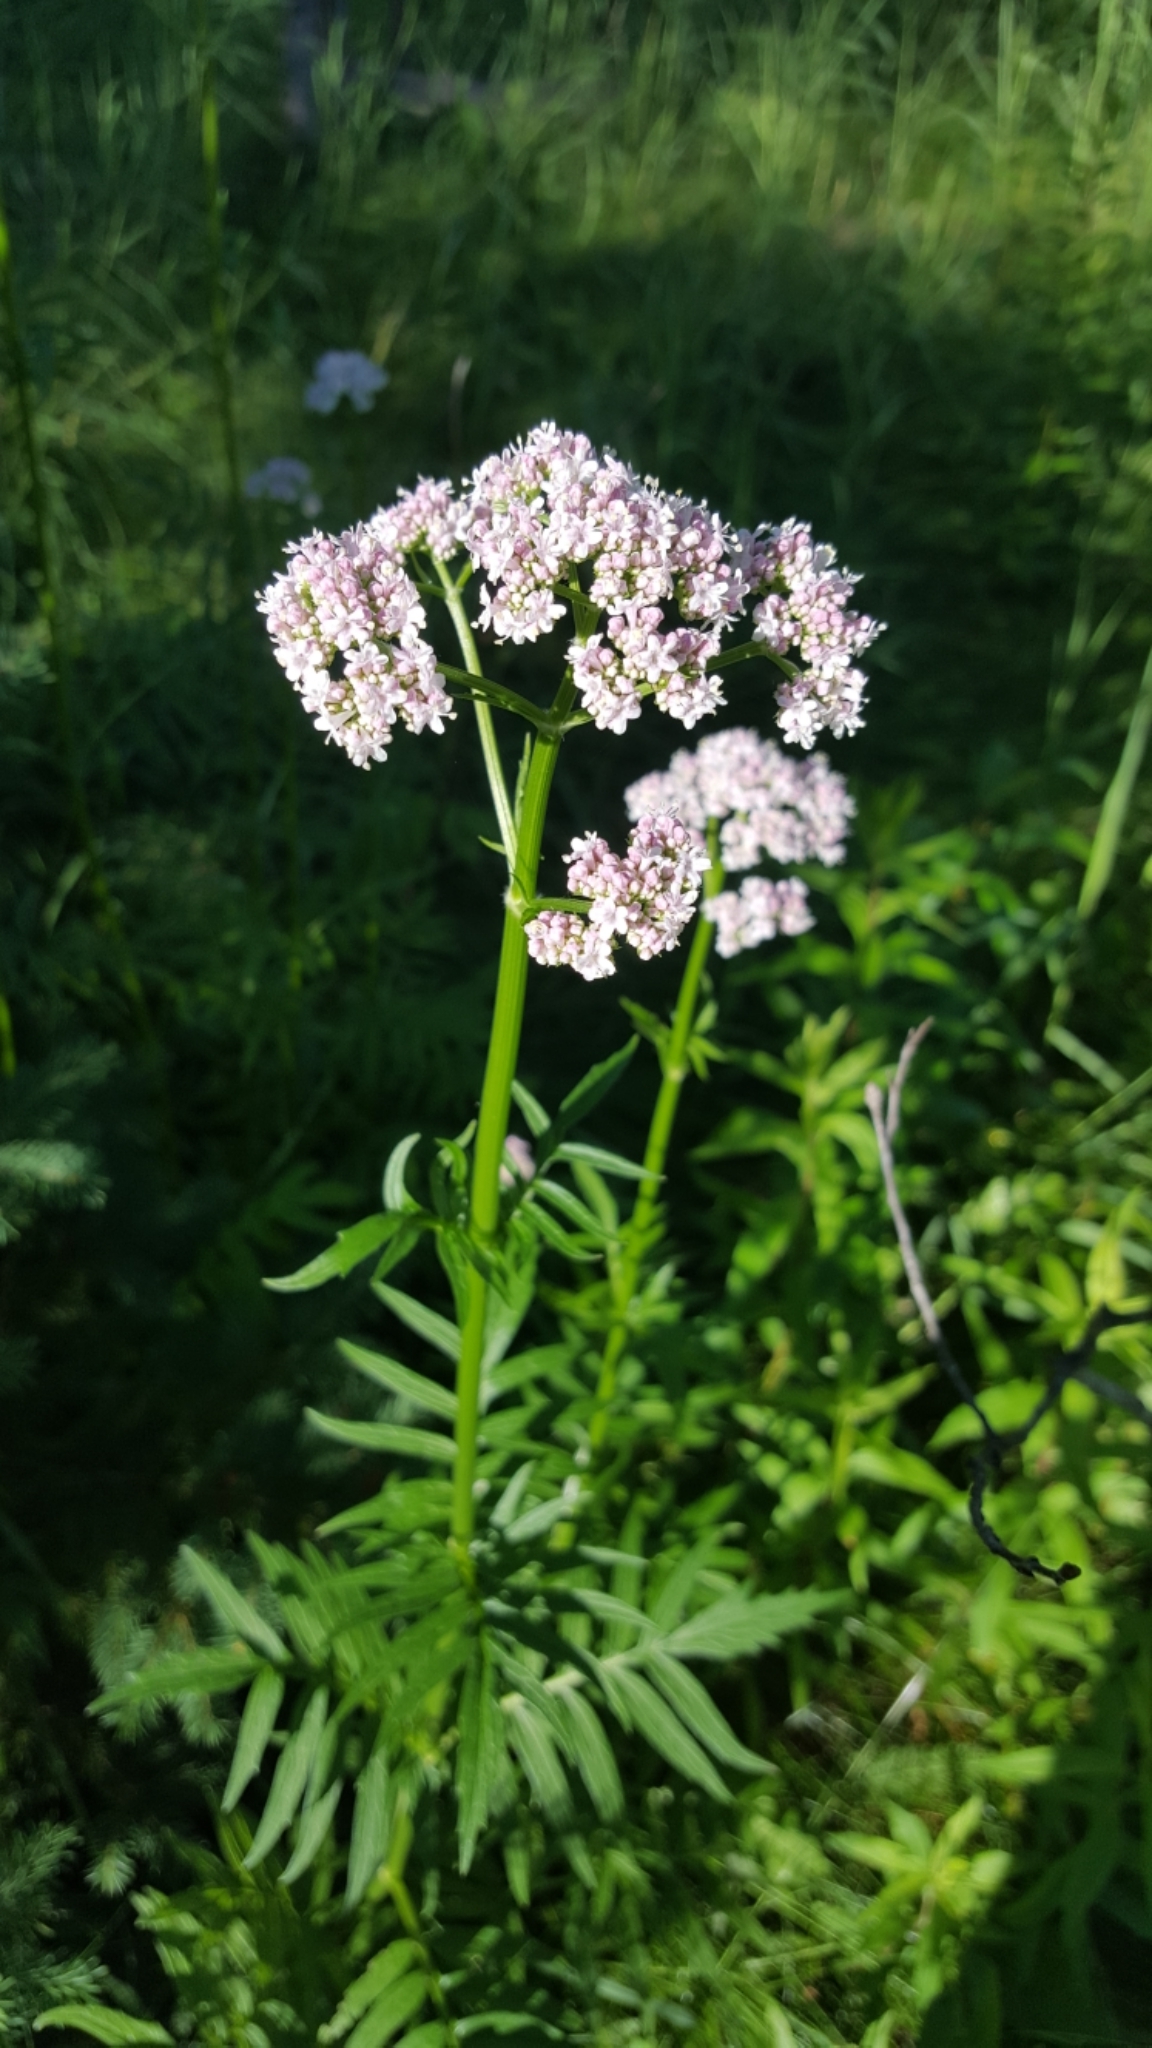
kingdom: Plantae
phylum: Tracheophyta
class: Magnoliopsida
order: Dipsacales
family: Caprifoliaceae
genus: Valeriana
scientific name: Valeriana officinalis
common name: Common valerian
